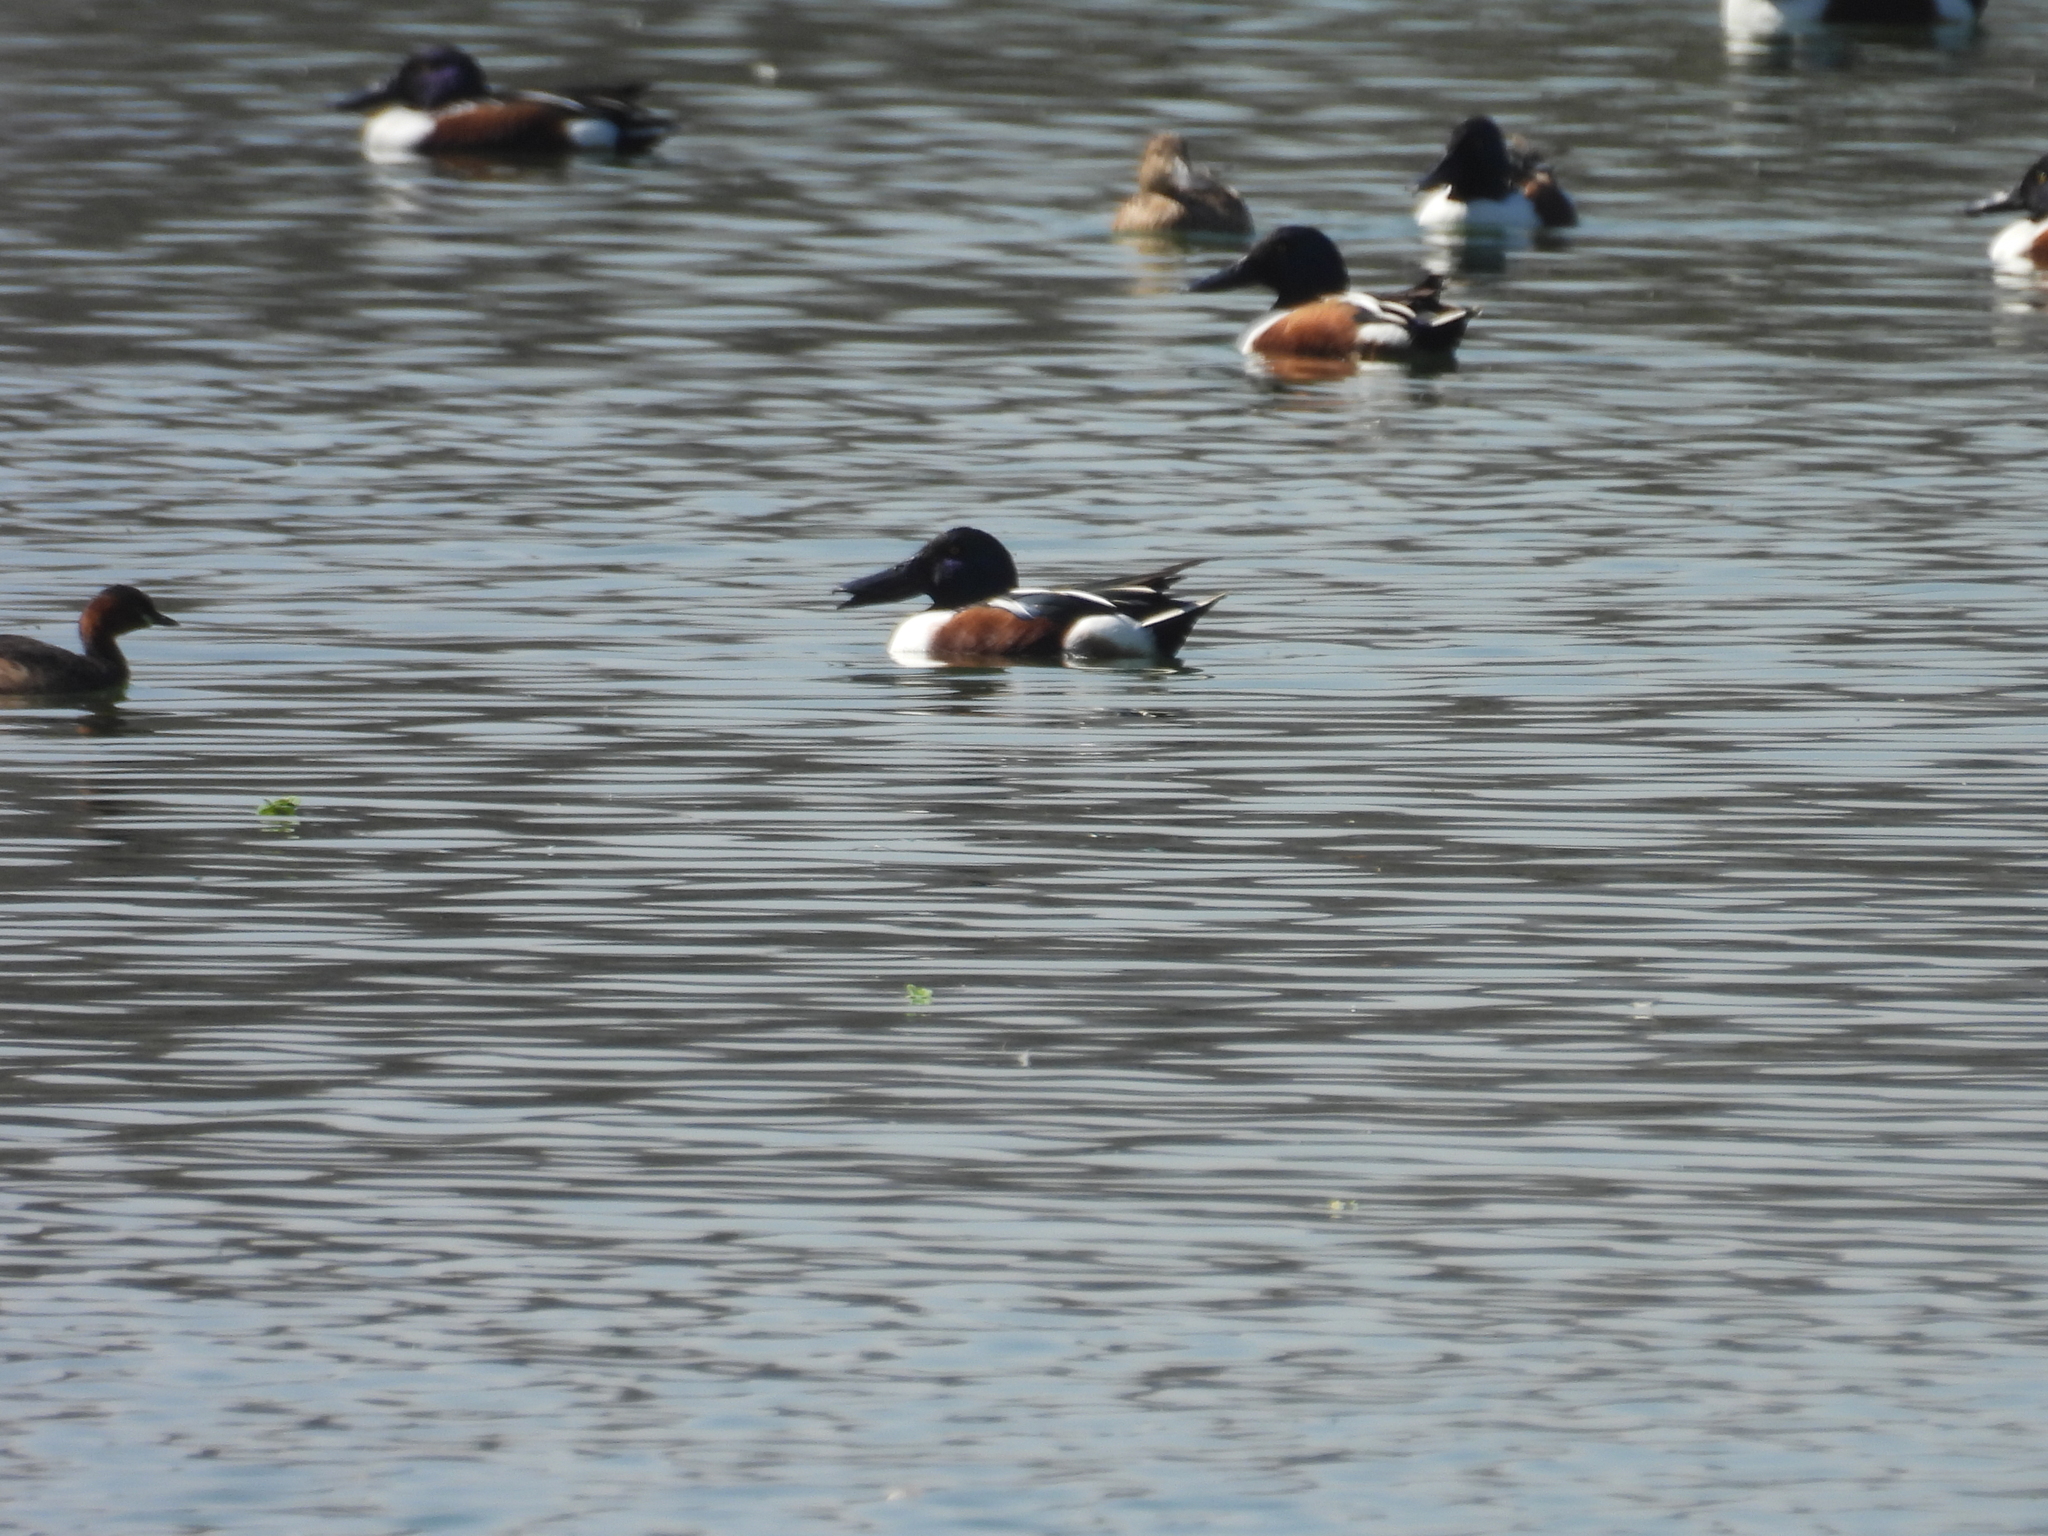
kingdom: Animalia
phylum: Chordata
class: Aves
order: Anseriformes
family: Anatidae
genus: Spatula
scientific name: Spatula clypeata
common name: Northern shoveler
